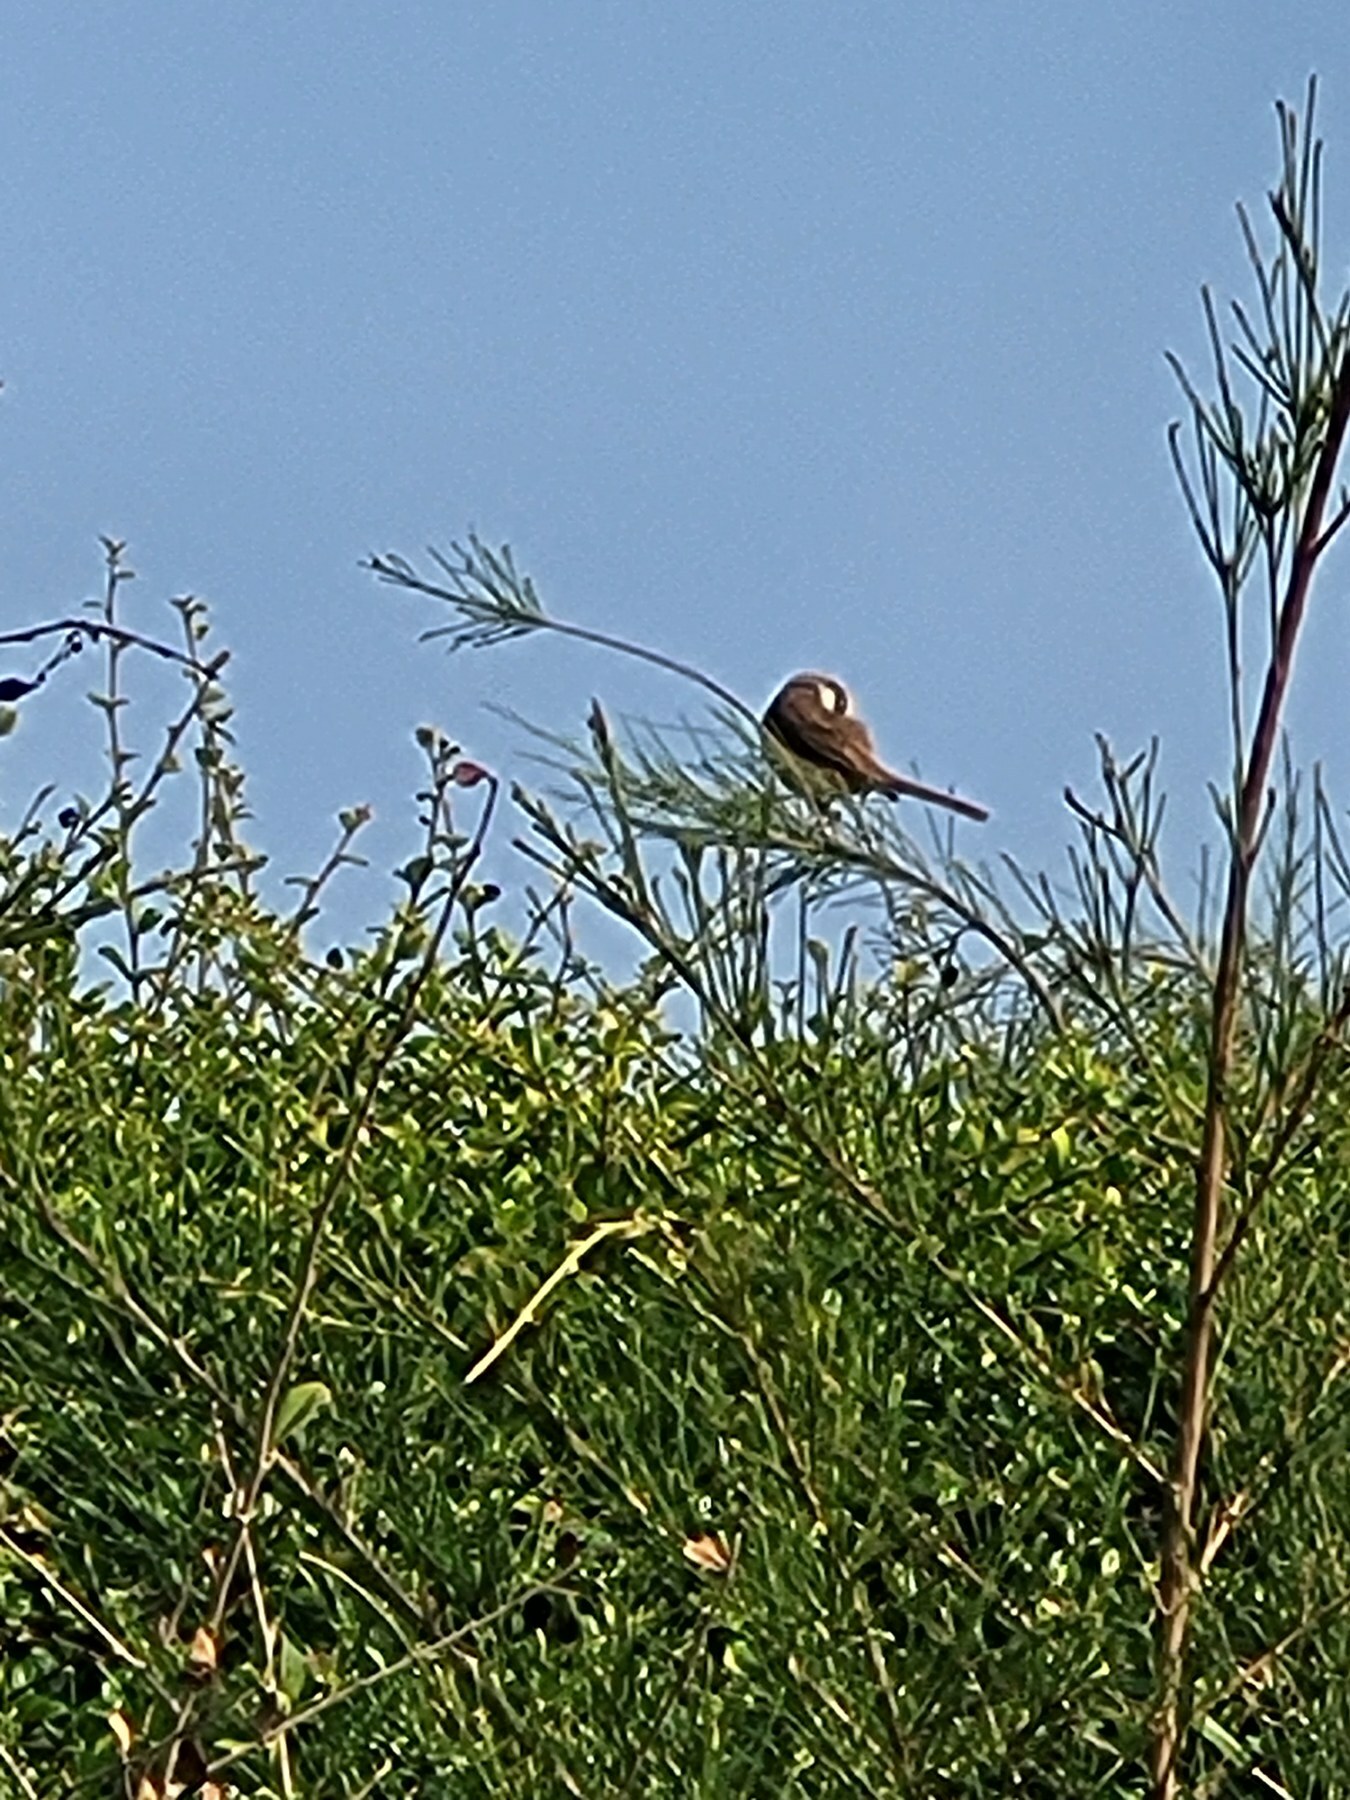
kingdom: Animalia
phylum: Chordata
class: Aves
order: Passeriformes
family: Laniidae
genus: Lanius
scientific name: Lanius cristatus
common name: Brown shrike
